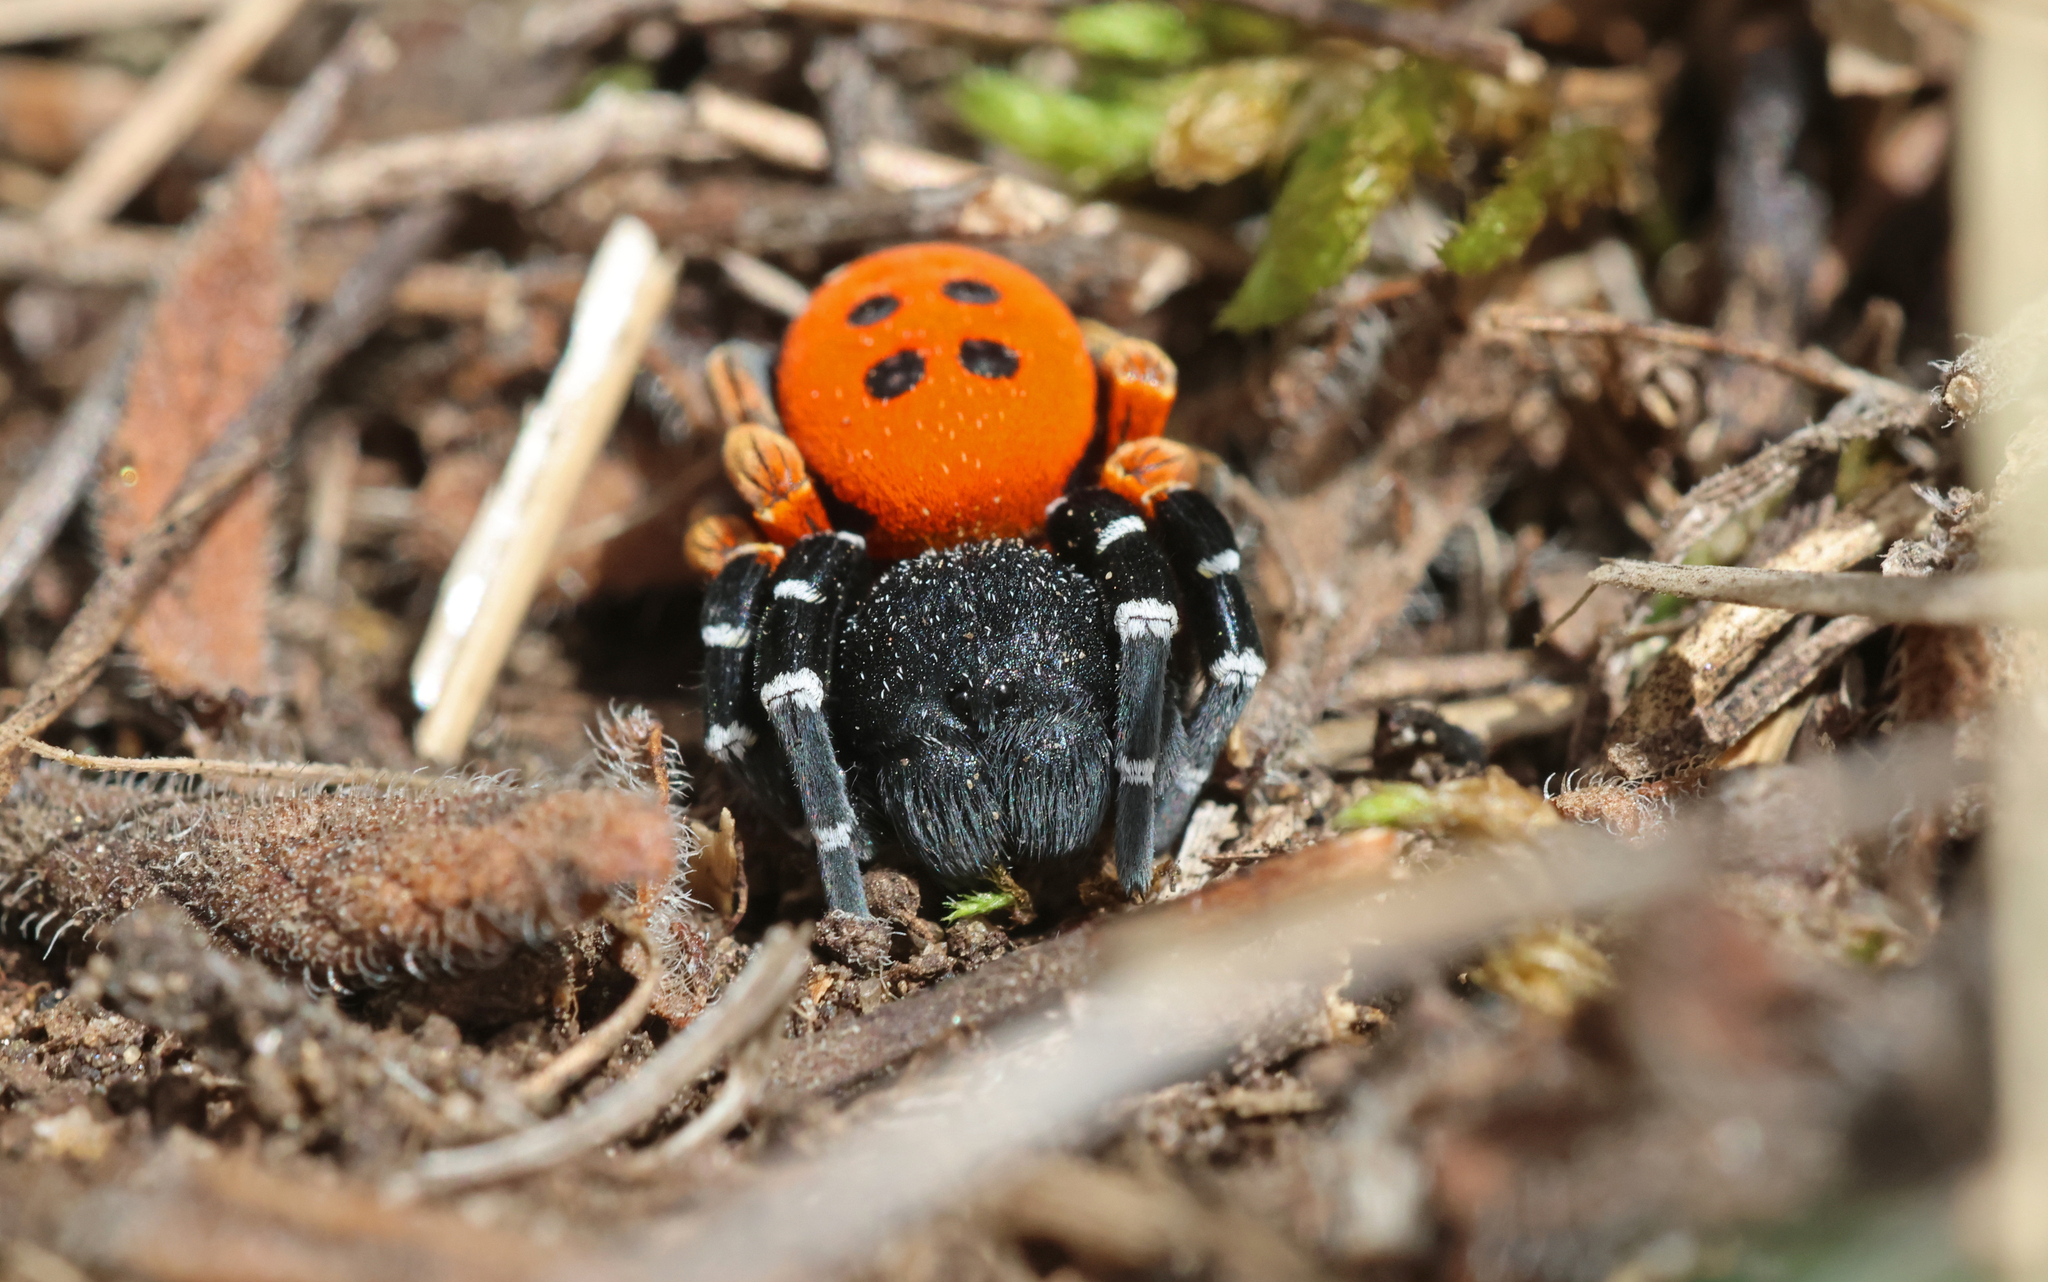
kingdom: Animalia
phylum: Arthropoda
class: Arachnida
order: Araneae
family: Eresidae
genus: Eresus
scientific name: Eresus moravicus
